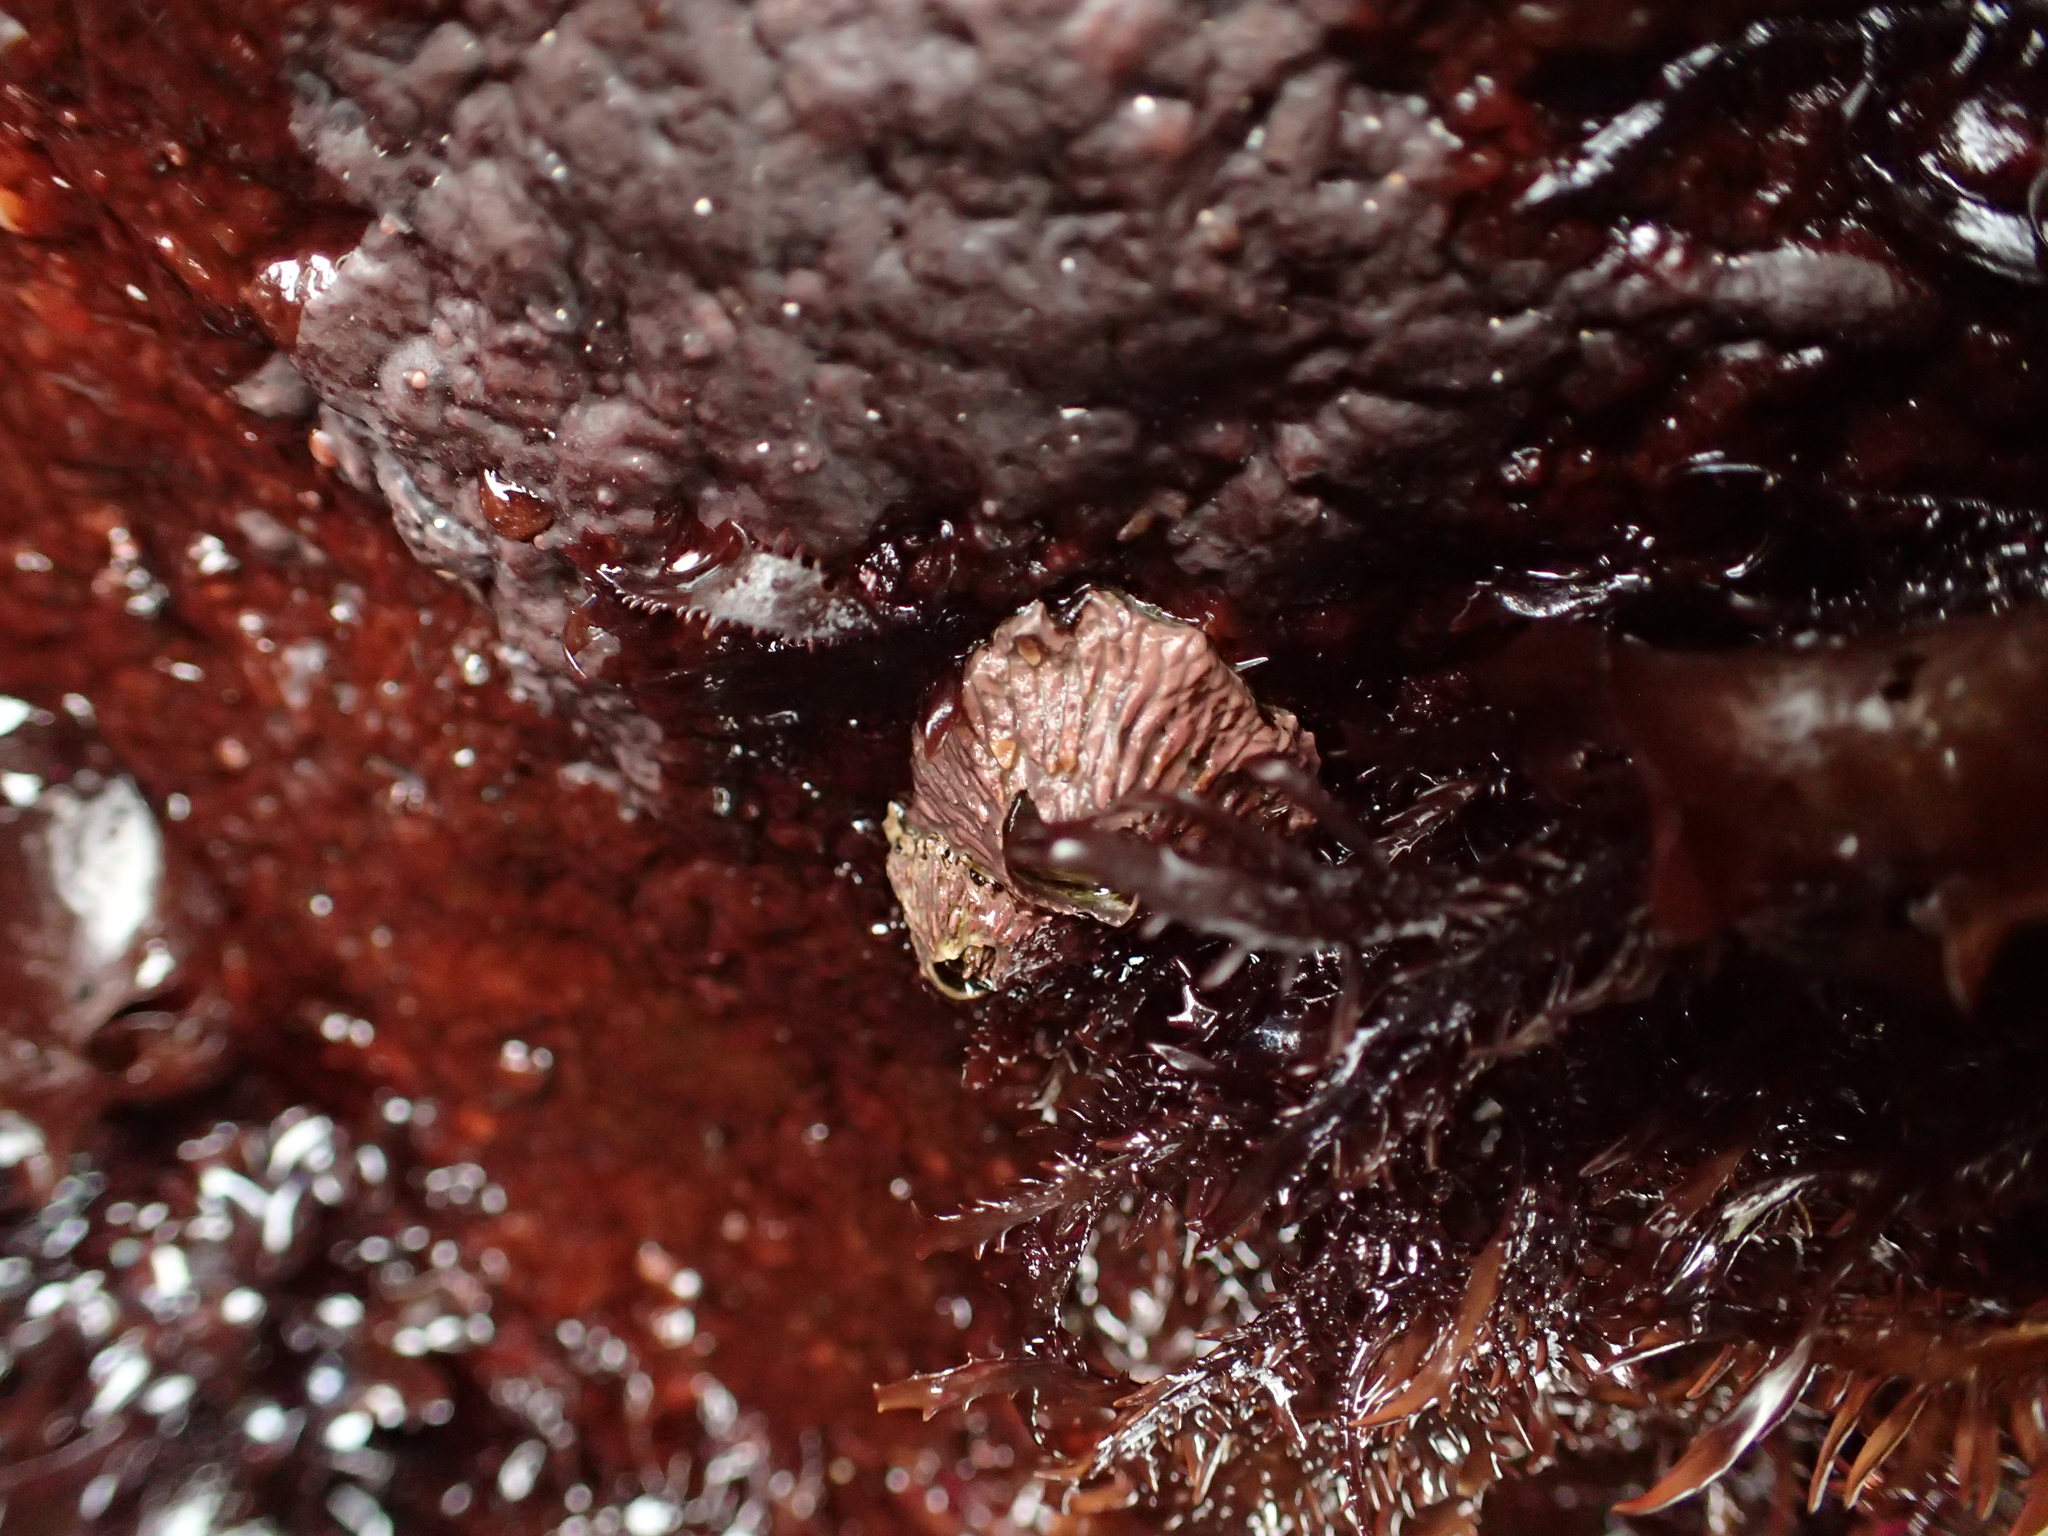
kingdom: Animalia
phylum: Arthropoda
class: Maxillopoda
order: Sessilia
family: Tetraclitidae
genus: Tetraclita
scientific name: Tetraclita rubescens
